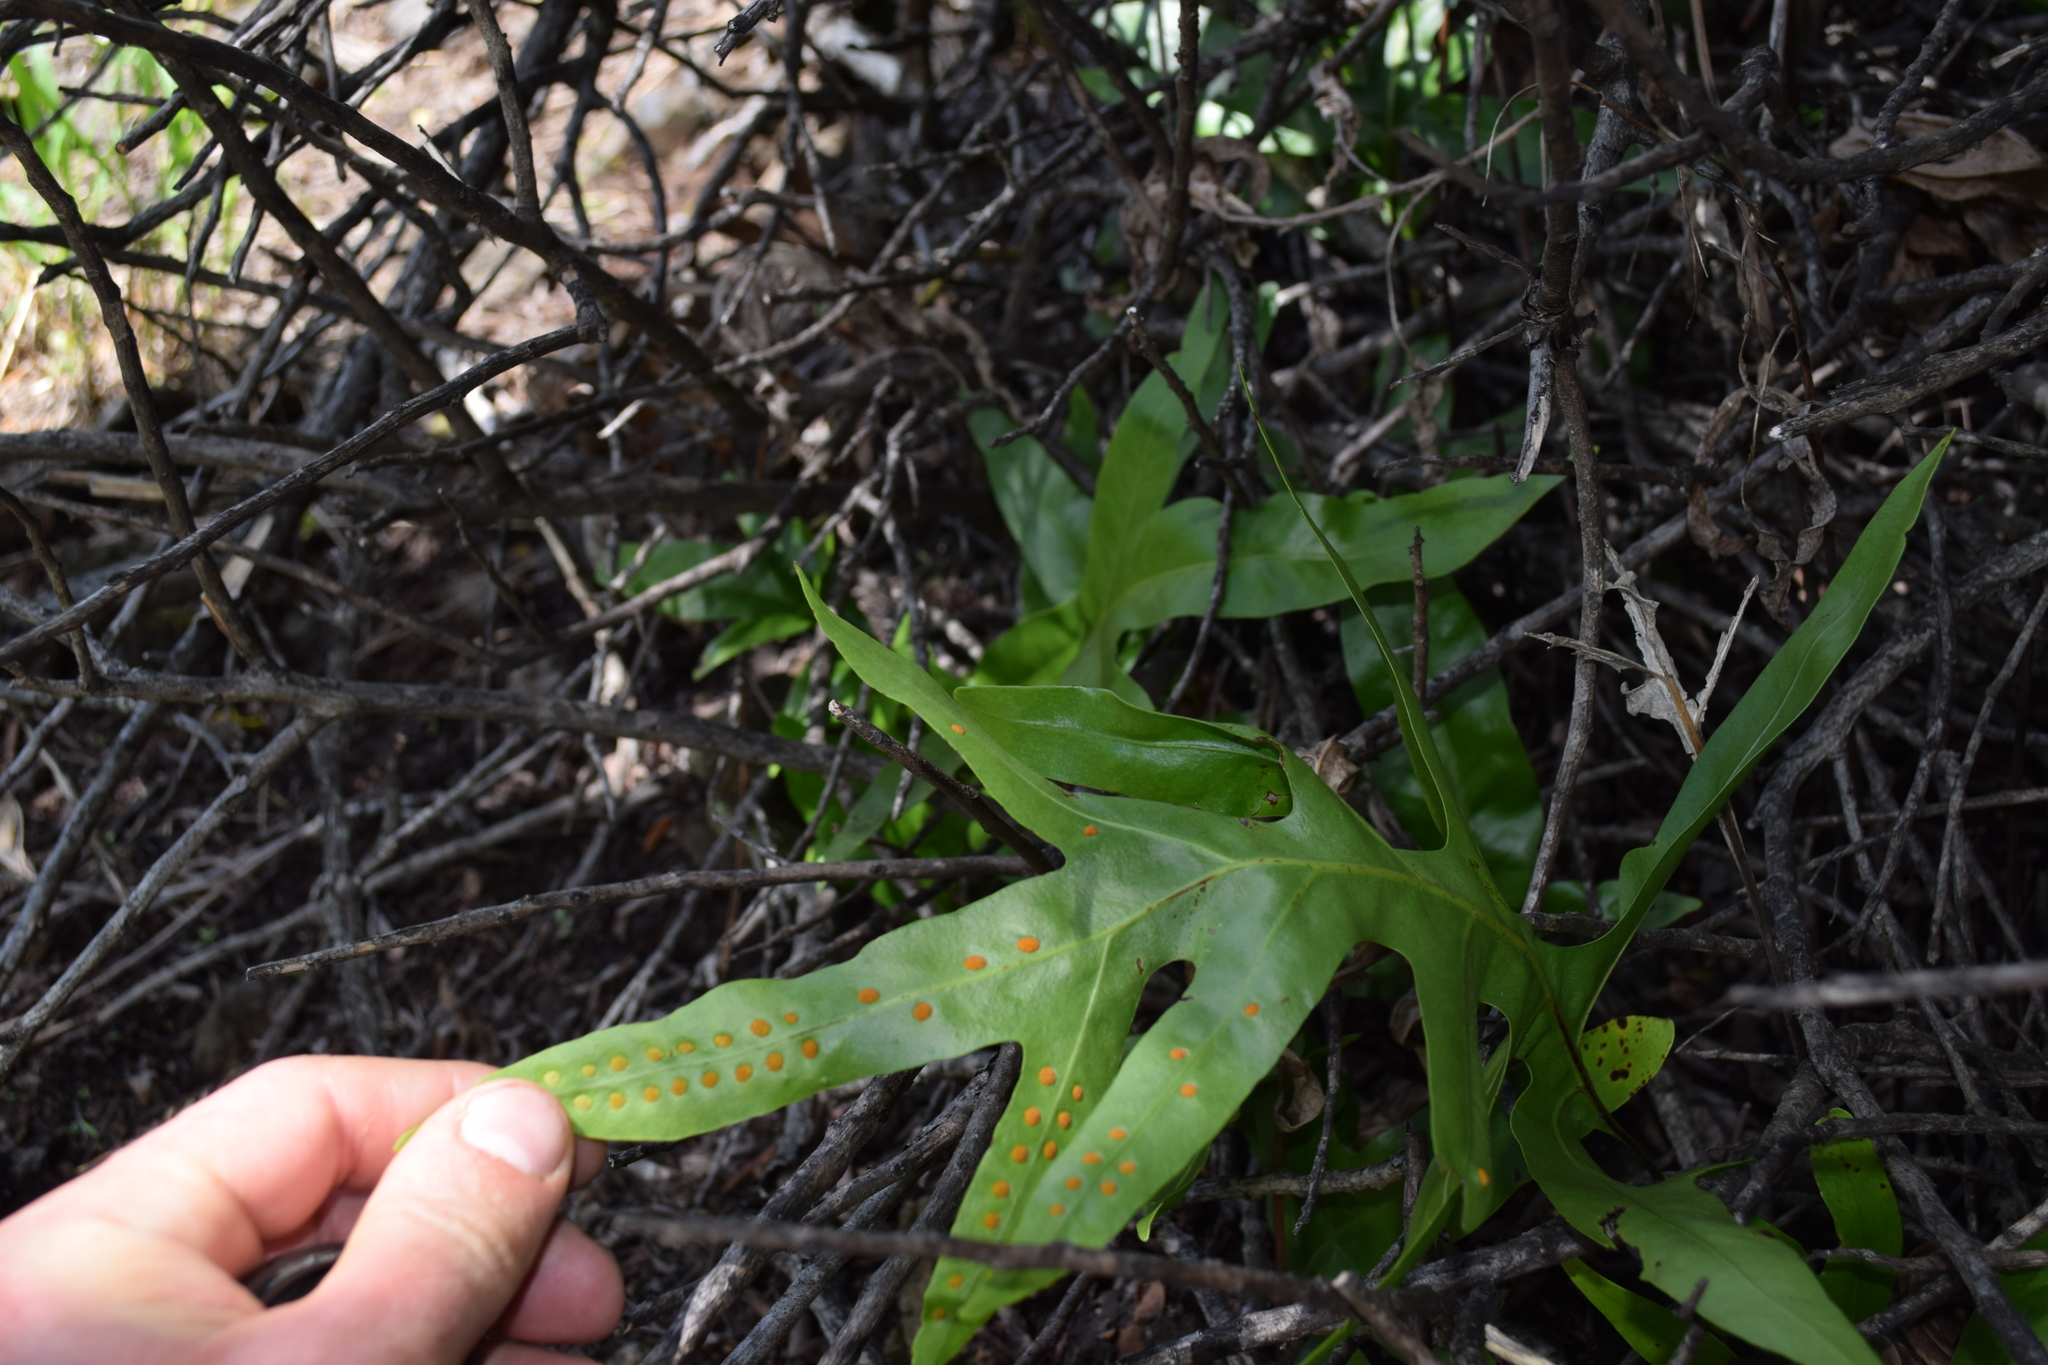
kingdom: Plantae
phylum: Tracheophyta
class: Polypodiopsida
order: Polypodiales
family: Polypodiaceae
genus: Microsorum
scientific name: Microsorum grossum
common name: Musk fern
